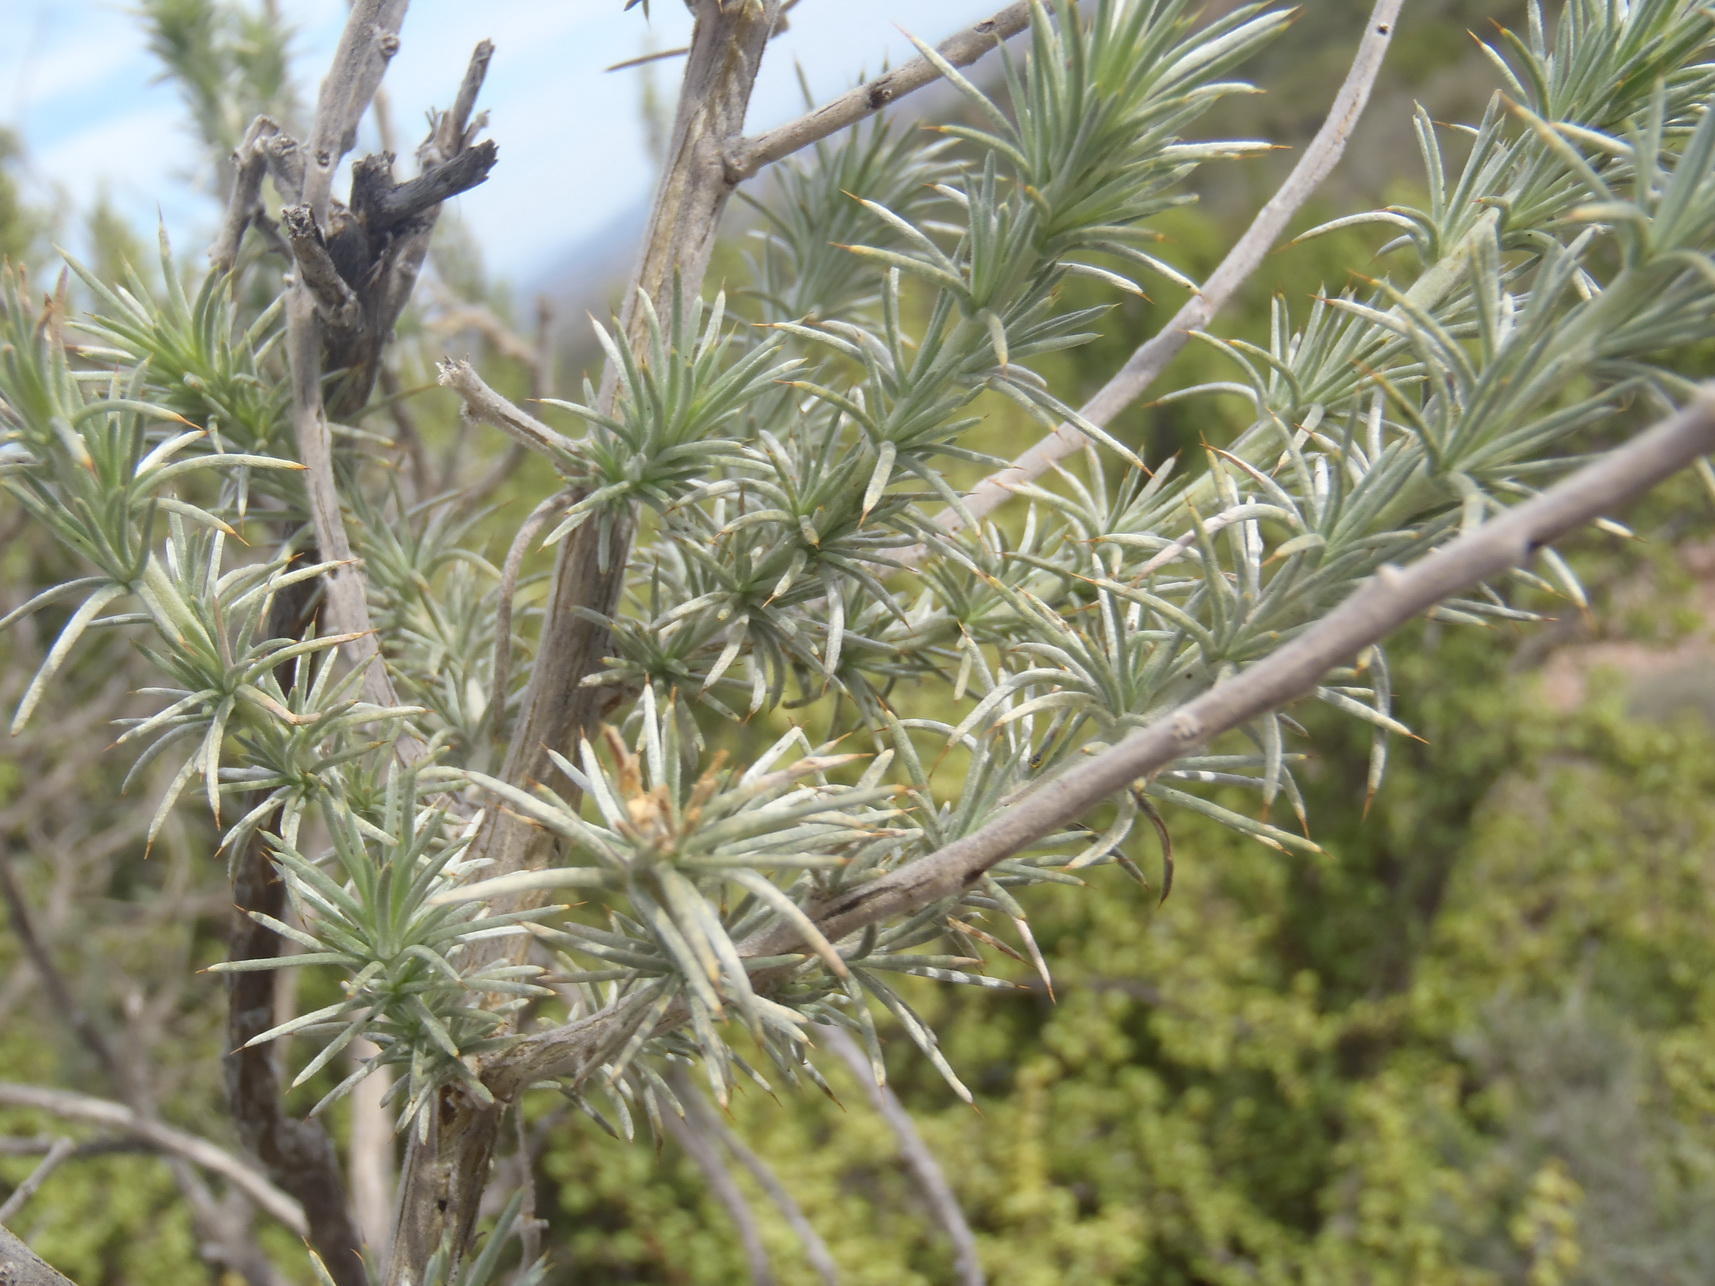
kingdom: Plantae
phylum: Tracheophyta
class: Magnoliopsida
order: Fabales
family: Fabaceae
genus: Aspalathus
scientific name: Aspalathus hystrix
